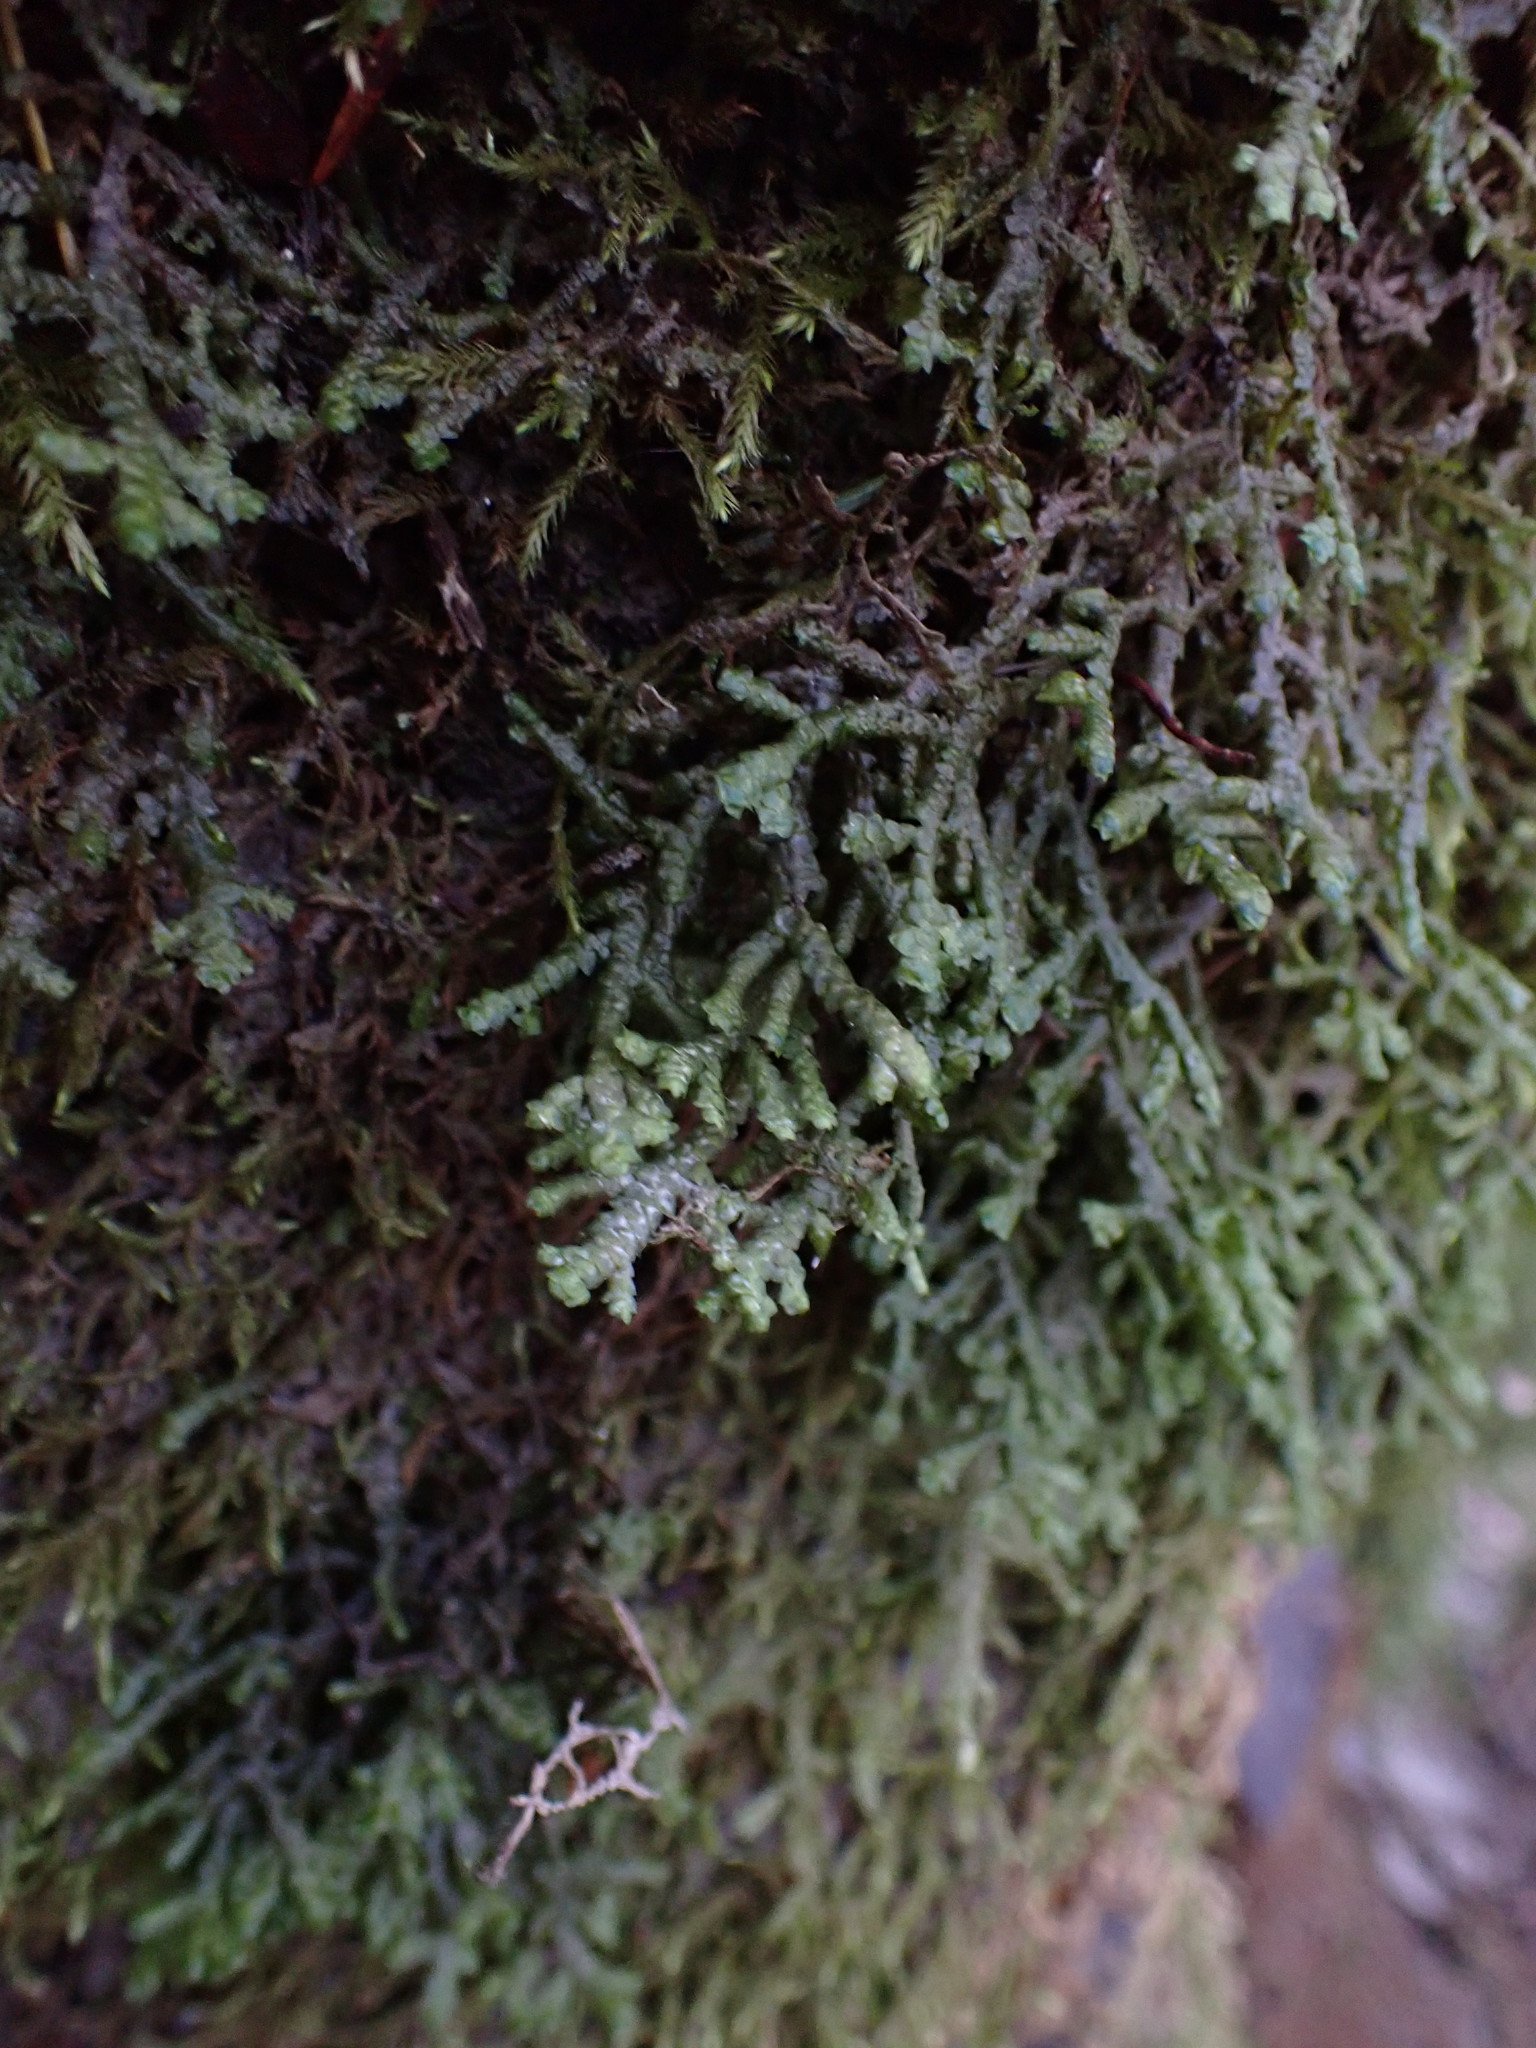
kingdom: Plantae
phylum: Marchantiophyta
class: Jungermanniopsida
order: Porellales
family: Porellaceae
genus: Porella
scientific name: Porella cordaeana
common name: Cliff scalewort
